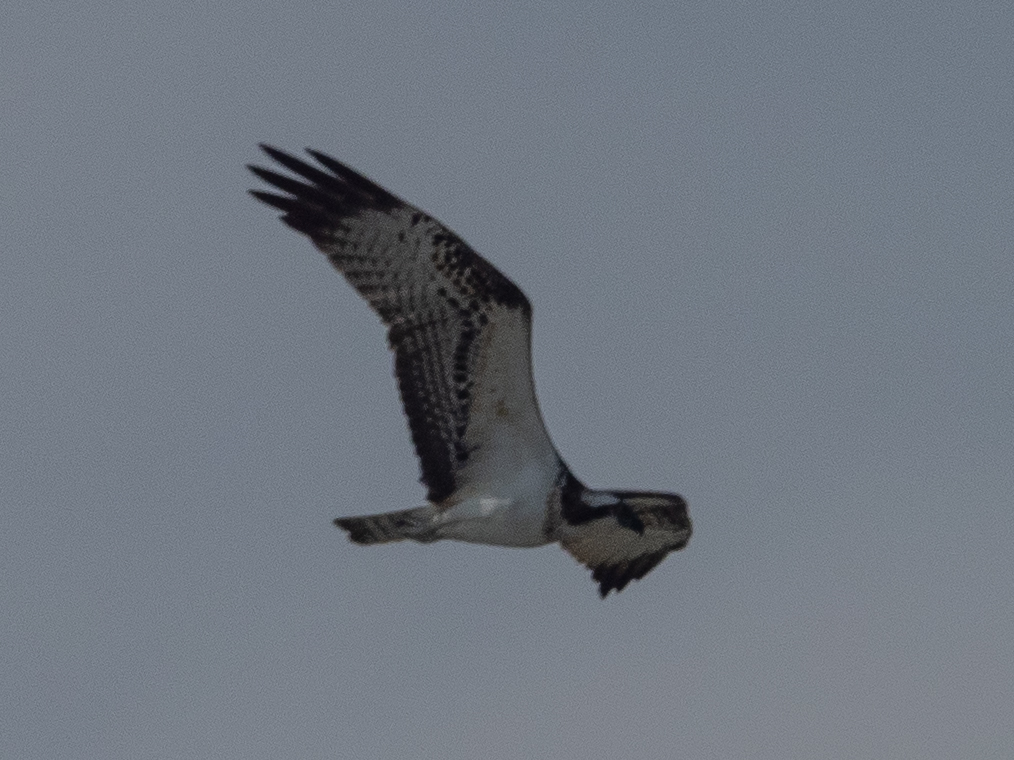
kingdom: Animalia
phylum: Chordata
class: Aves
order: Accipitriformes
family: Pandionidae
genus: Pandion
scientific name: Pandion haliaetus
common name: Osprey
